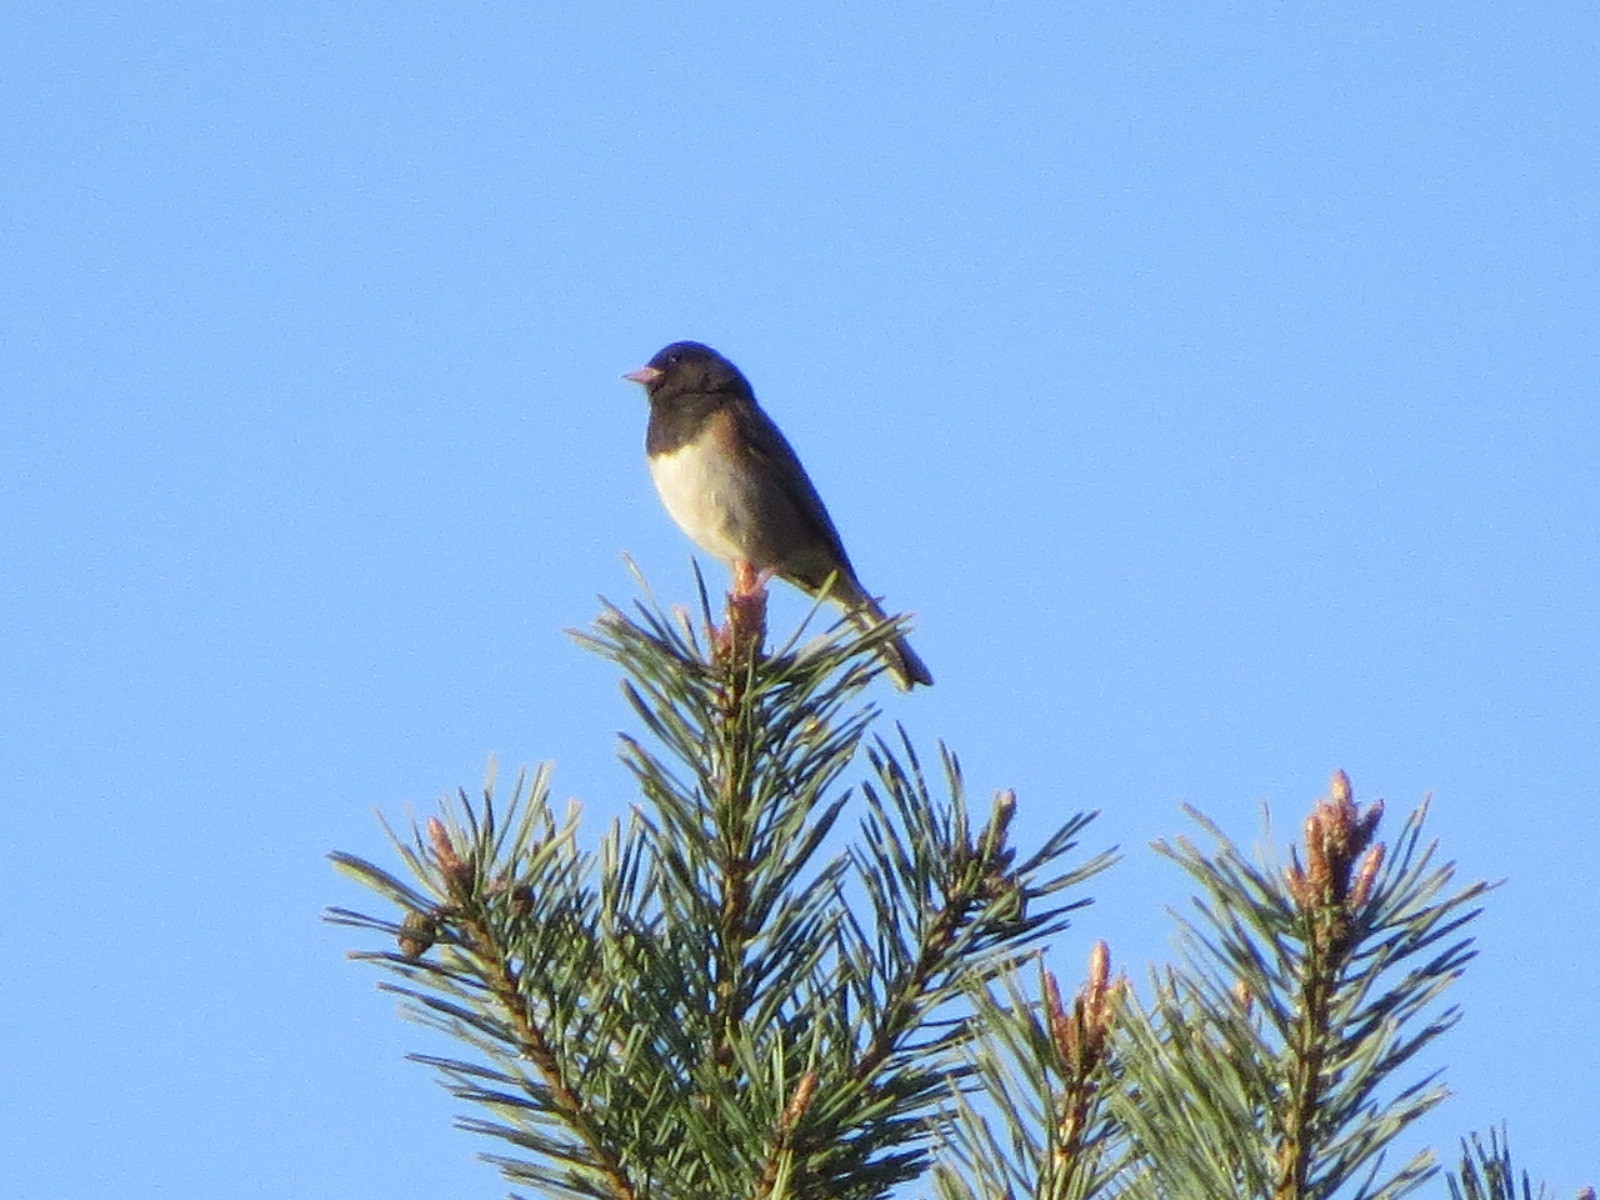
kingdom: Animalia
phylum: Chordata
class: Aves
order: Passeriformes
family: Passerellidae
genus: Junco
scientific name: Junco hyemalis
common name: Dark-eyed junco
